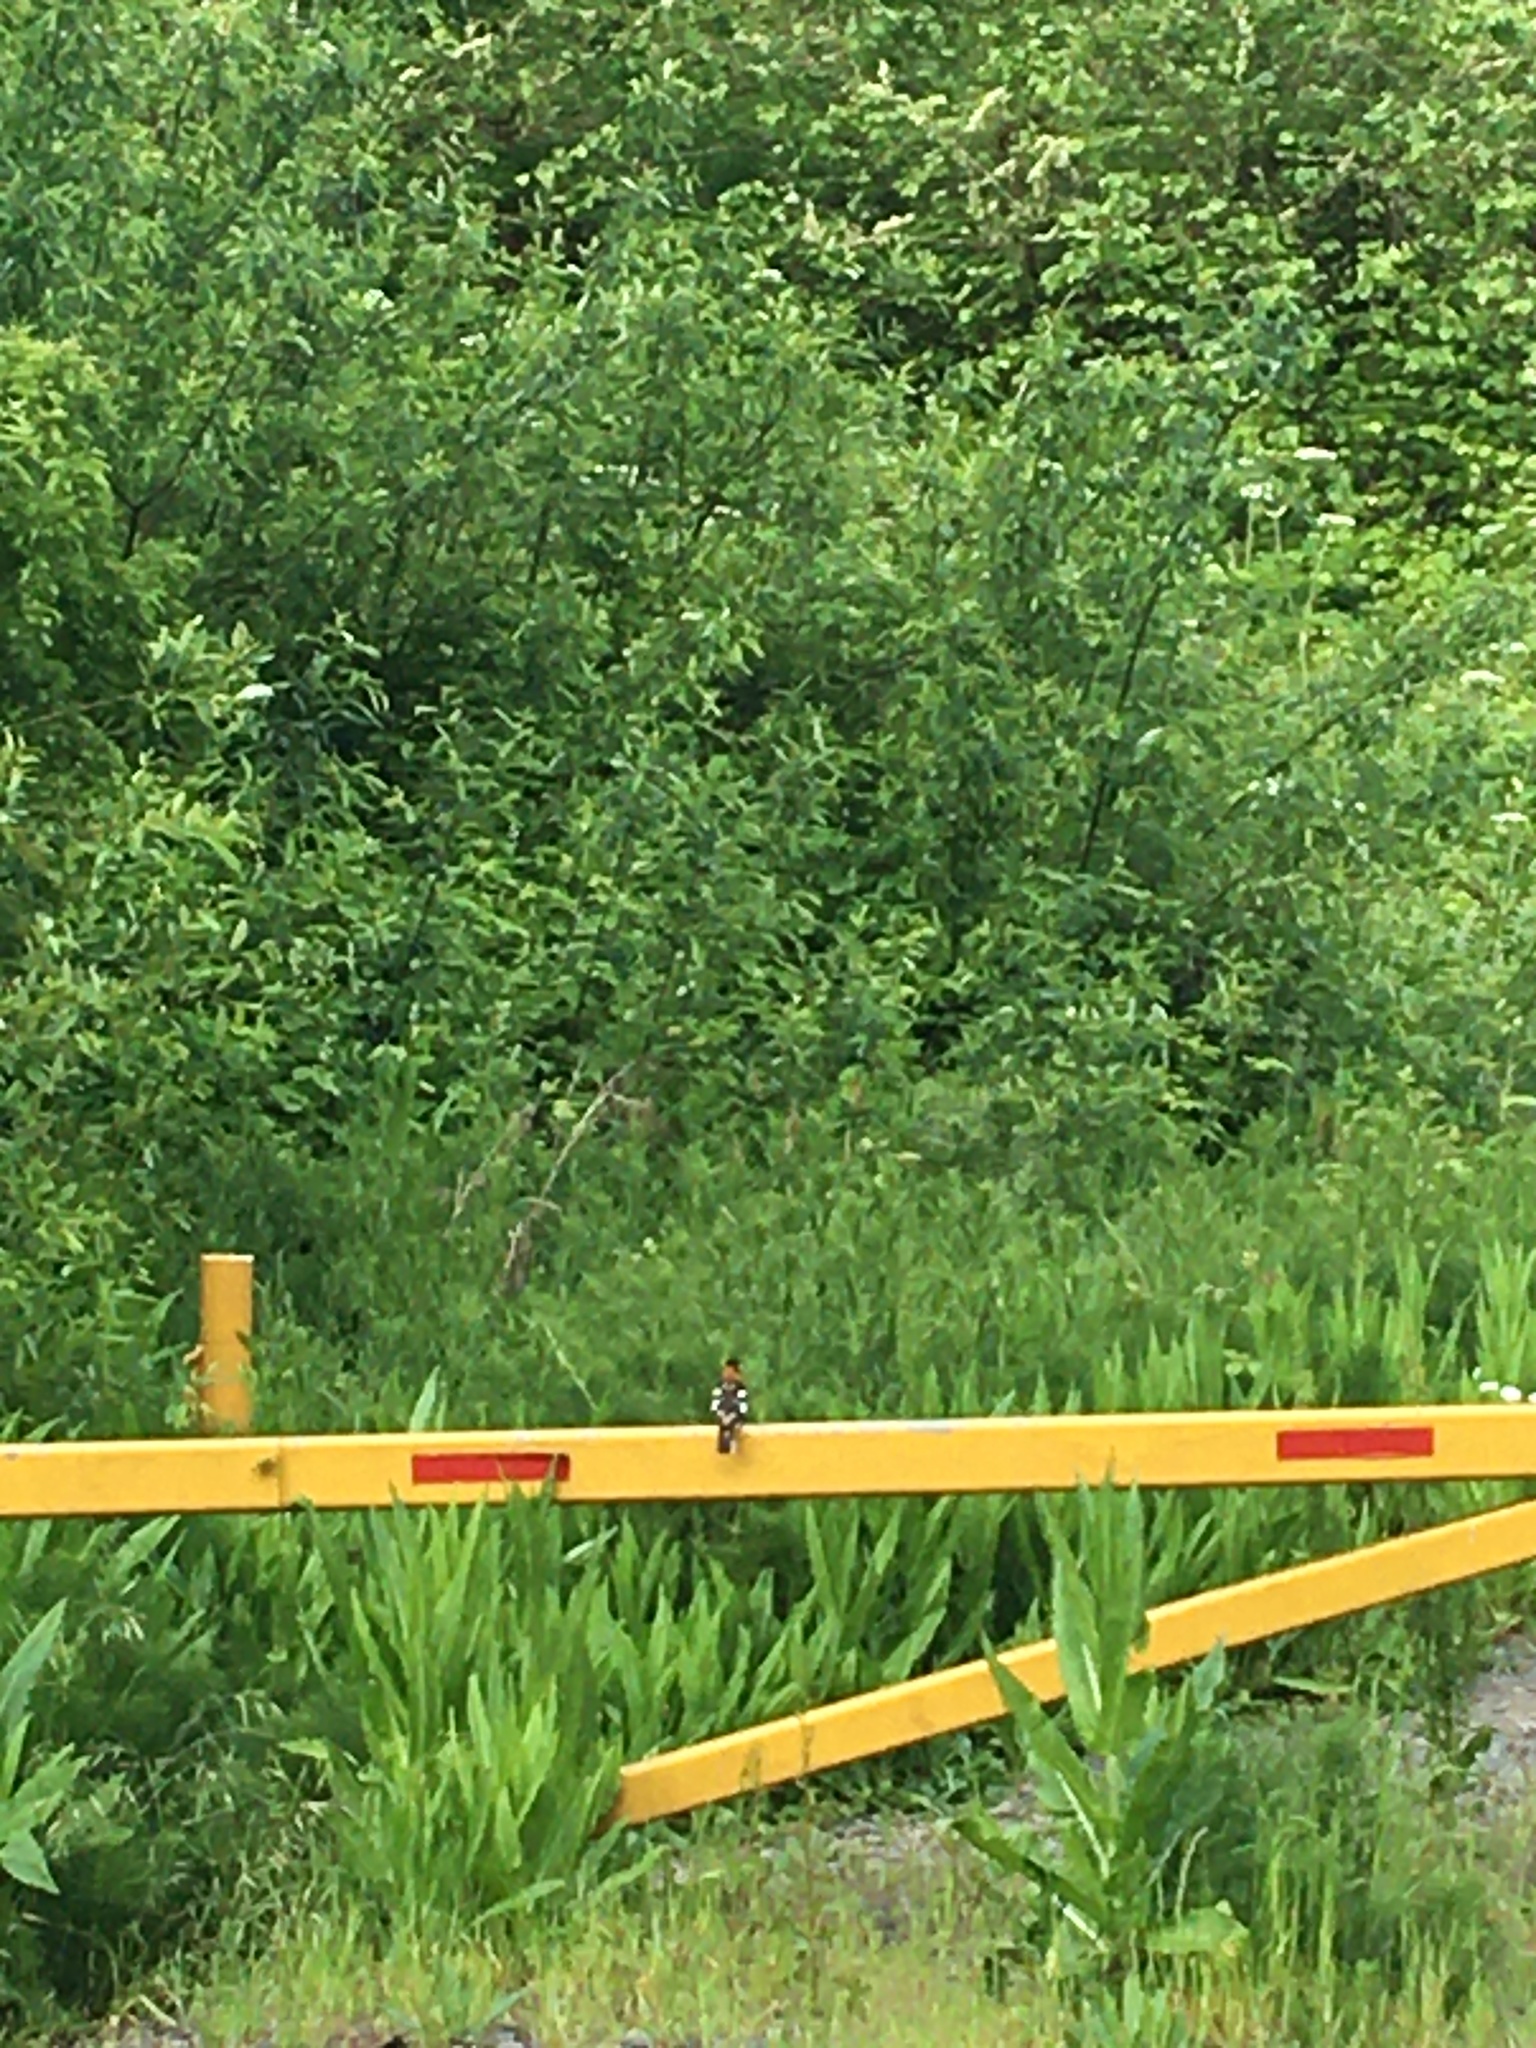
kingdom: Animalia
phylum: Chordata
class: Aves
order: Passeriformes
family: Cardinalidae
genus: Pheucticus
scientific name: Pheucticus melanocephalus
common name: Black-headed grosbeak
